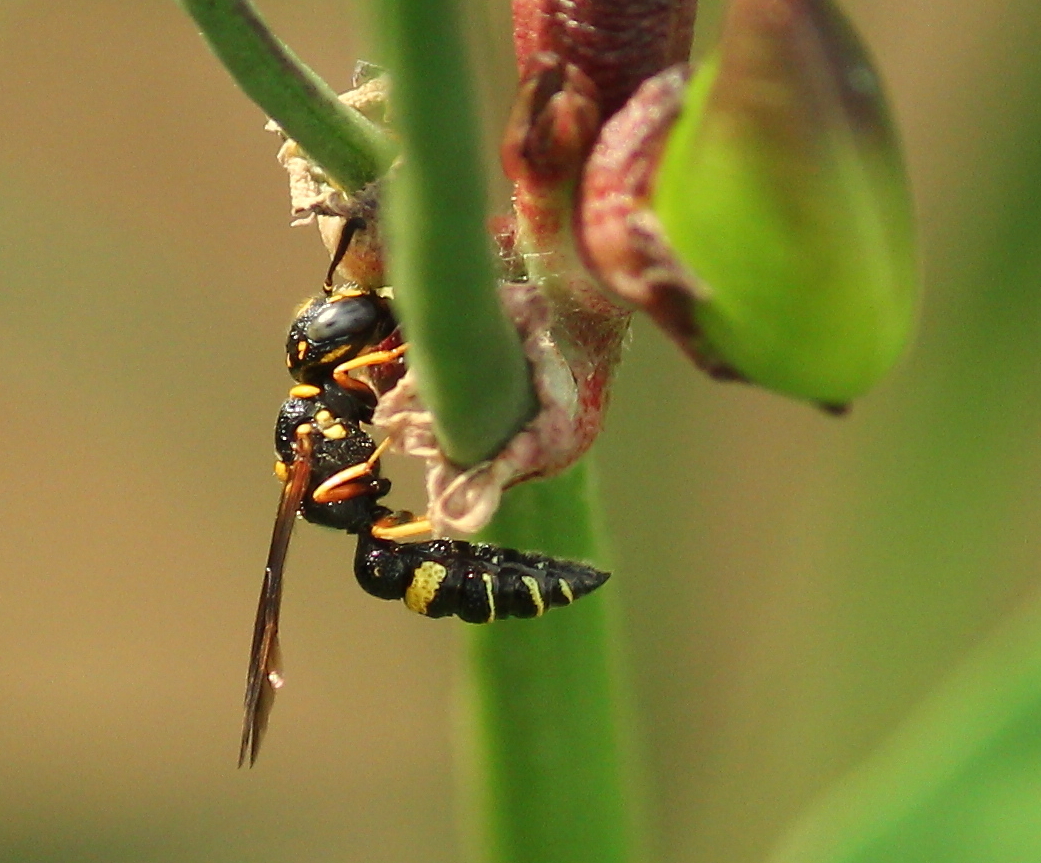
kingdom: Animalia
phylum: Arthropoda
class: Insecta
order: Hymenoptera
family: Crabronidae
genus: Philanthus
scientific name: Philanthus gibbosus
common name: Humped beewolf
